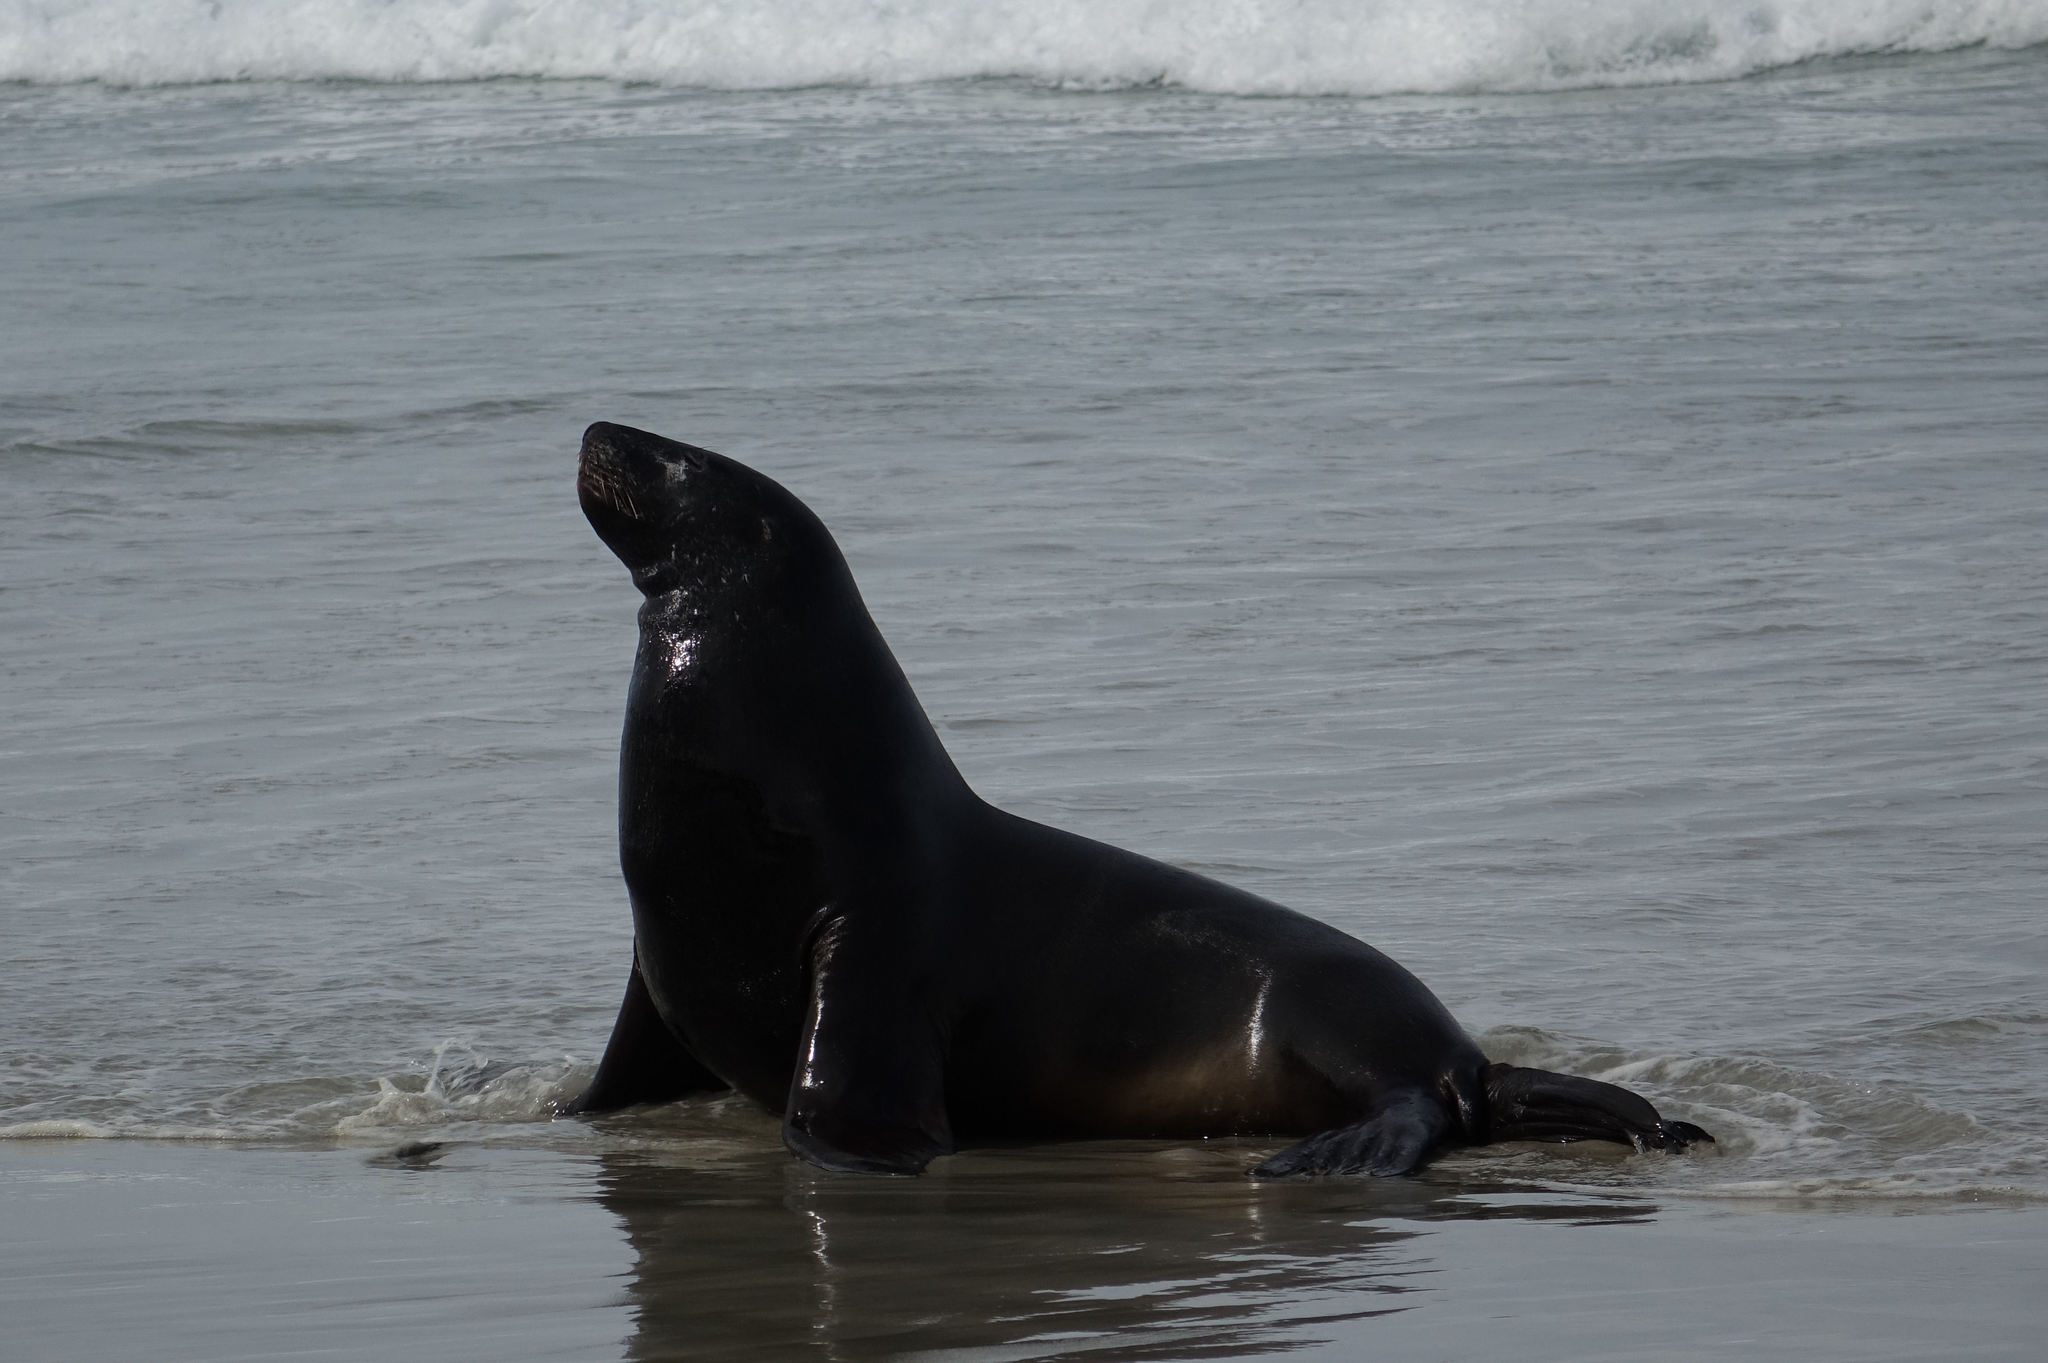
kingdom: Animalia
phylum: Chordata
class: Mammalia
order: Carnivora
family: Otariidae
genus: Phocarctos
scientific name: Phocarctos hookeri
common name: New zealand sea lion
